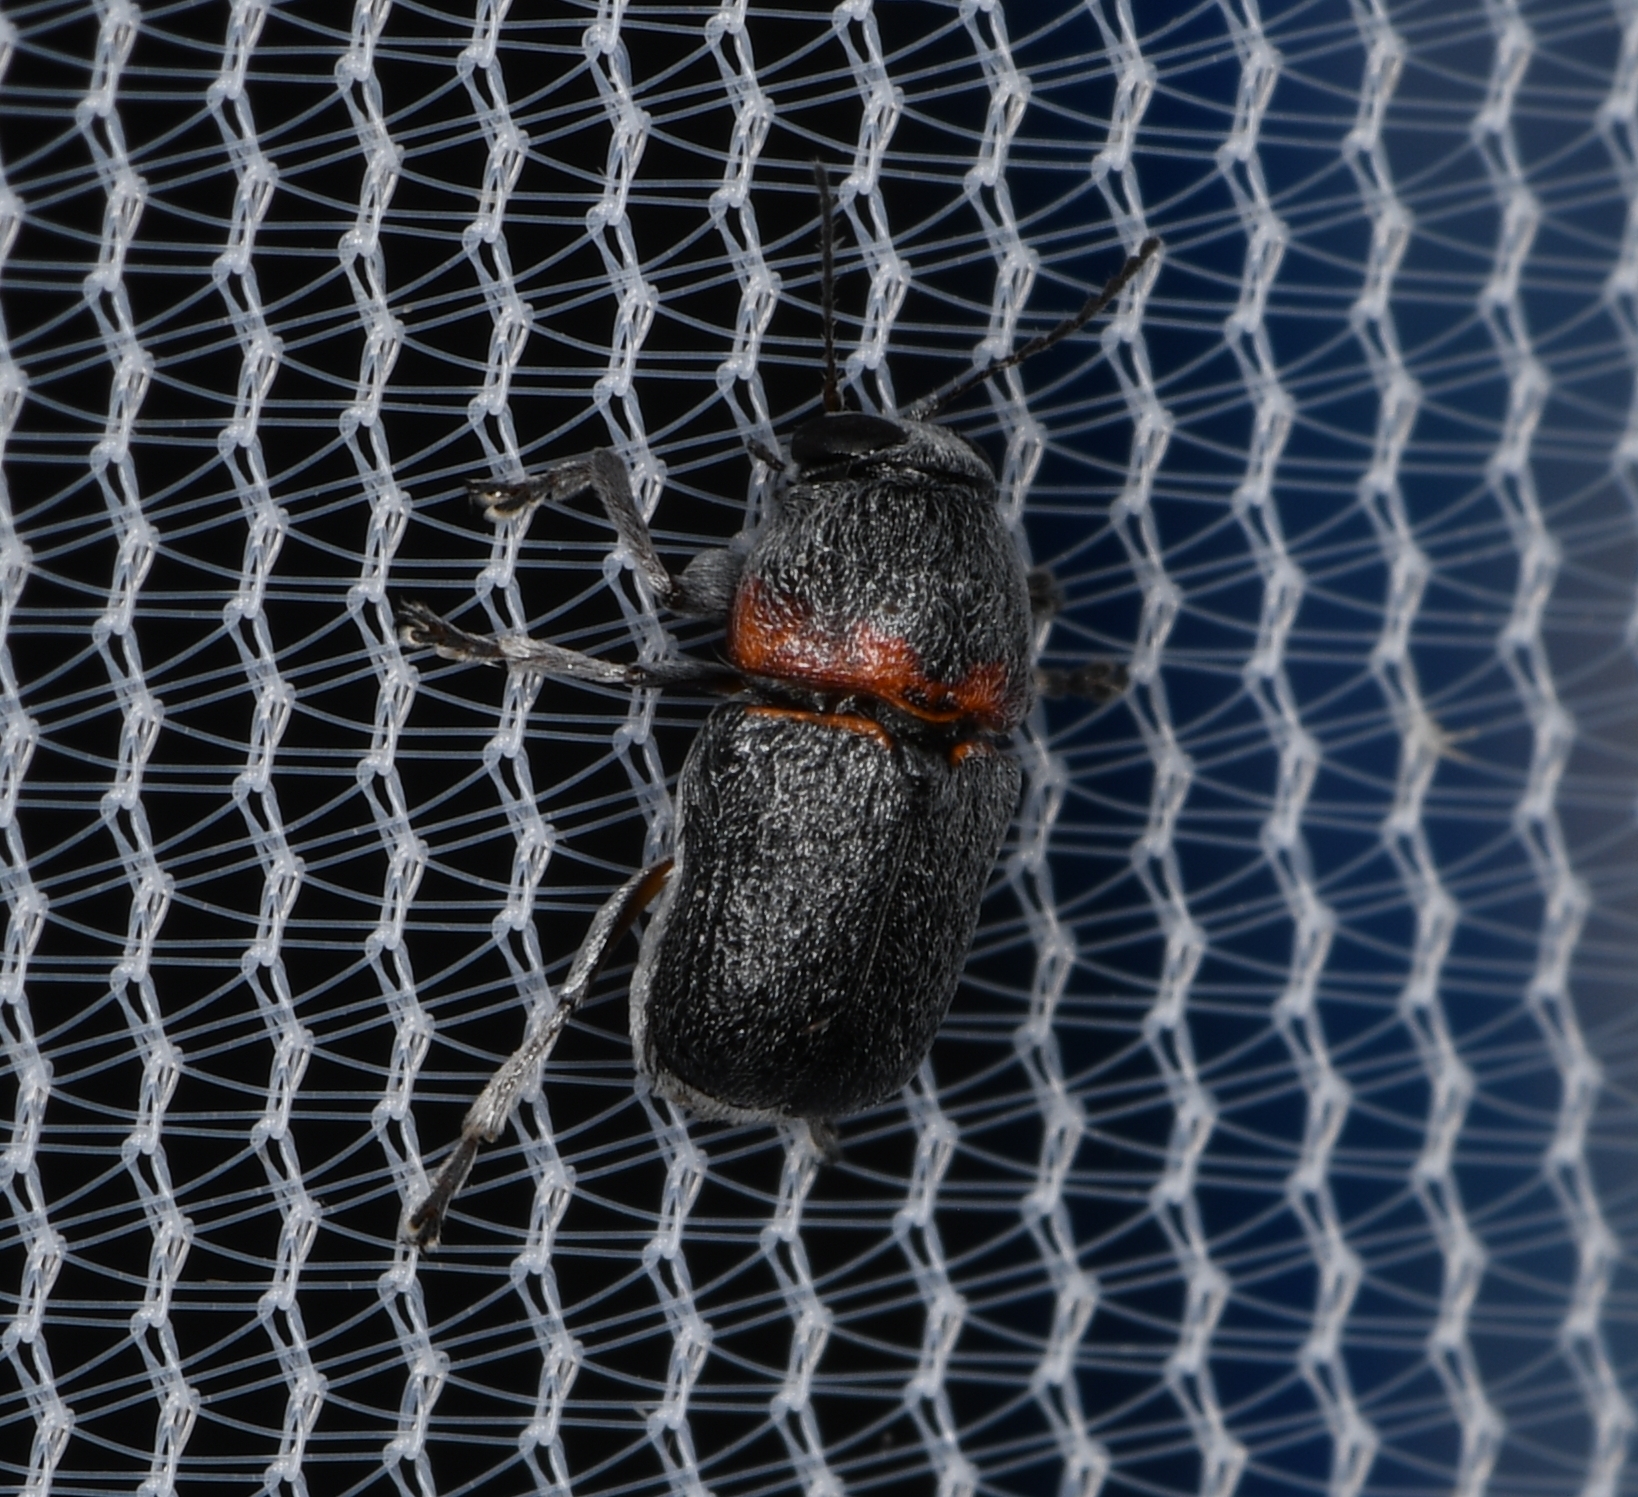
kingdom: Animalia
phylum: Arthropoda
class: Insecta
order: Coleoptera
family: Chrysomelidae
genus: Pachybrachis
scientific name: Pachybrachis thoracicus
